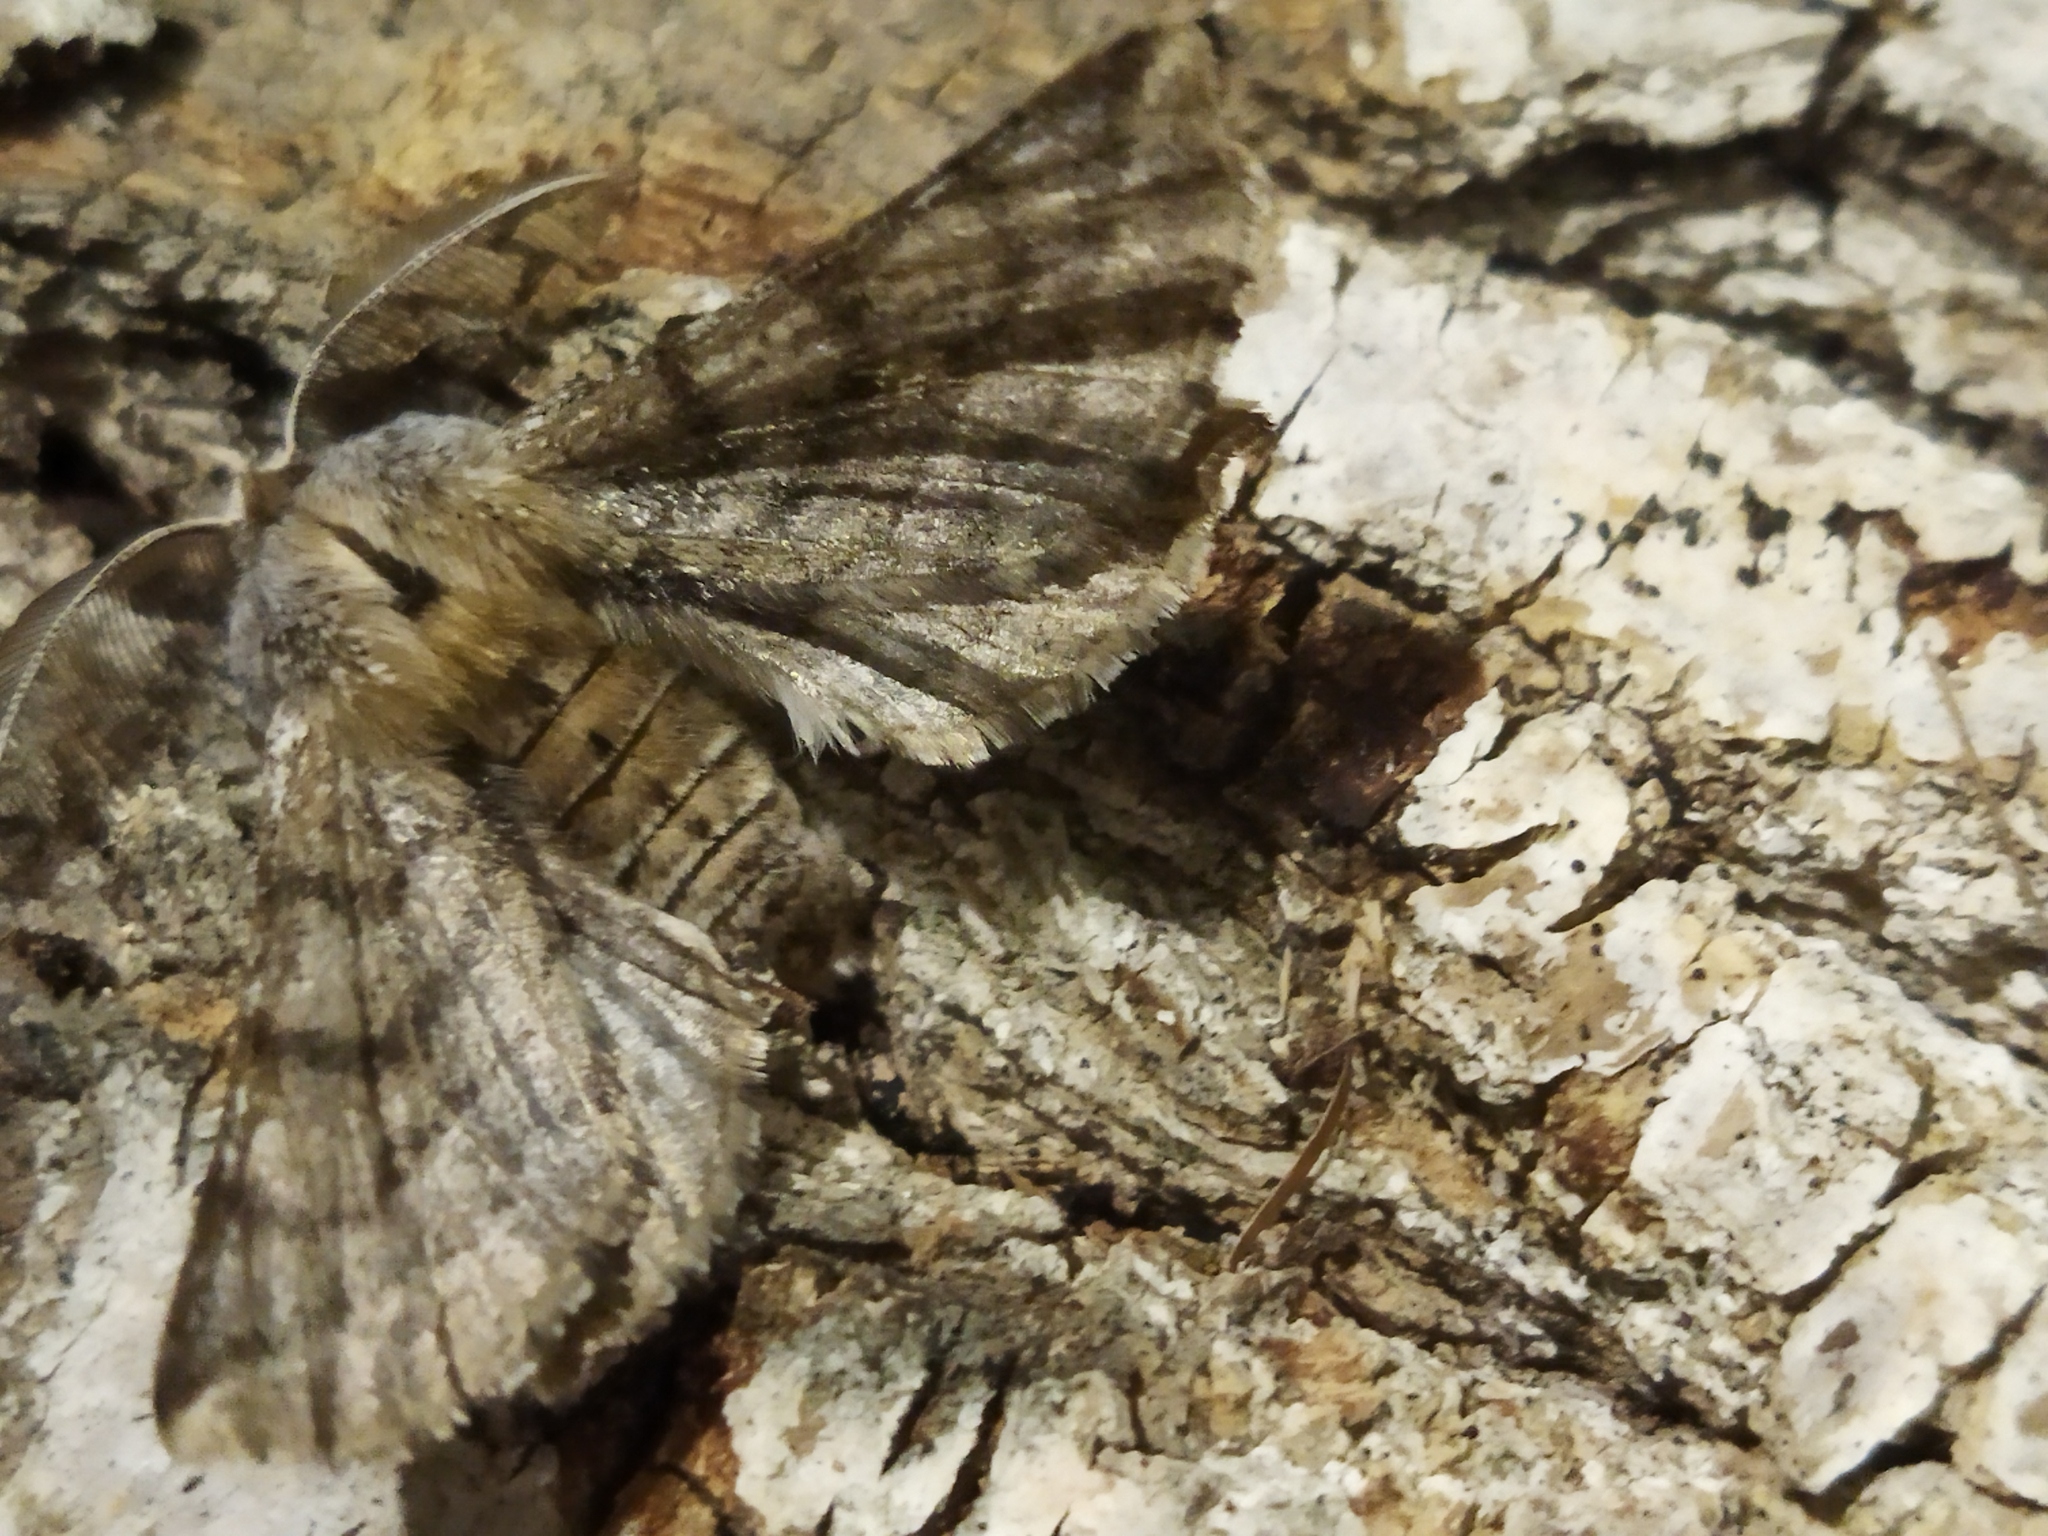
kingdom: Animalia
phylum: Arthropoda
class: Insecta
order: Lepidoptera
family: Geometridae
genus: Apochima
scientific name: Apochima flabellaria
